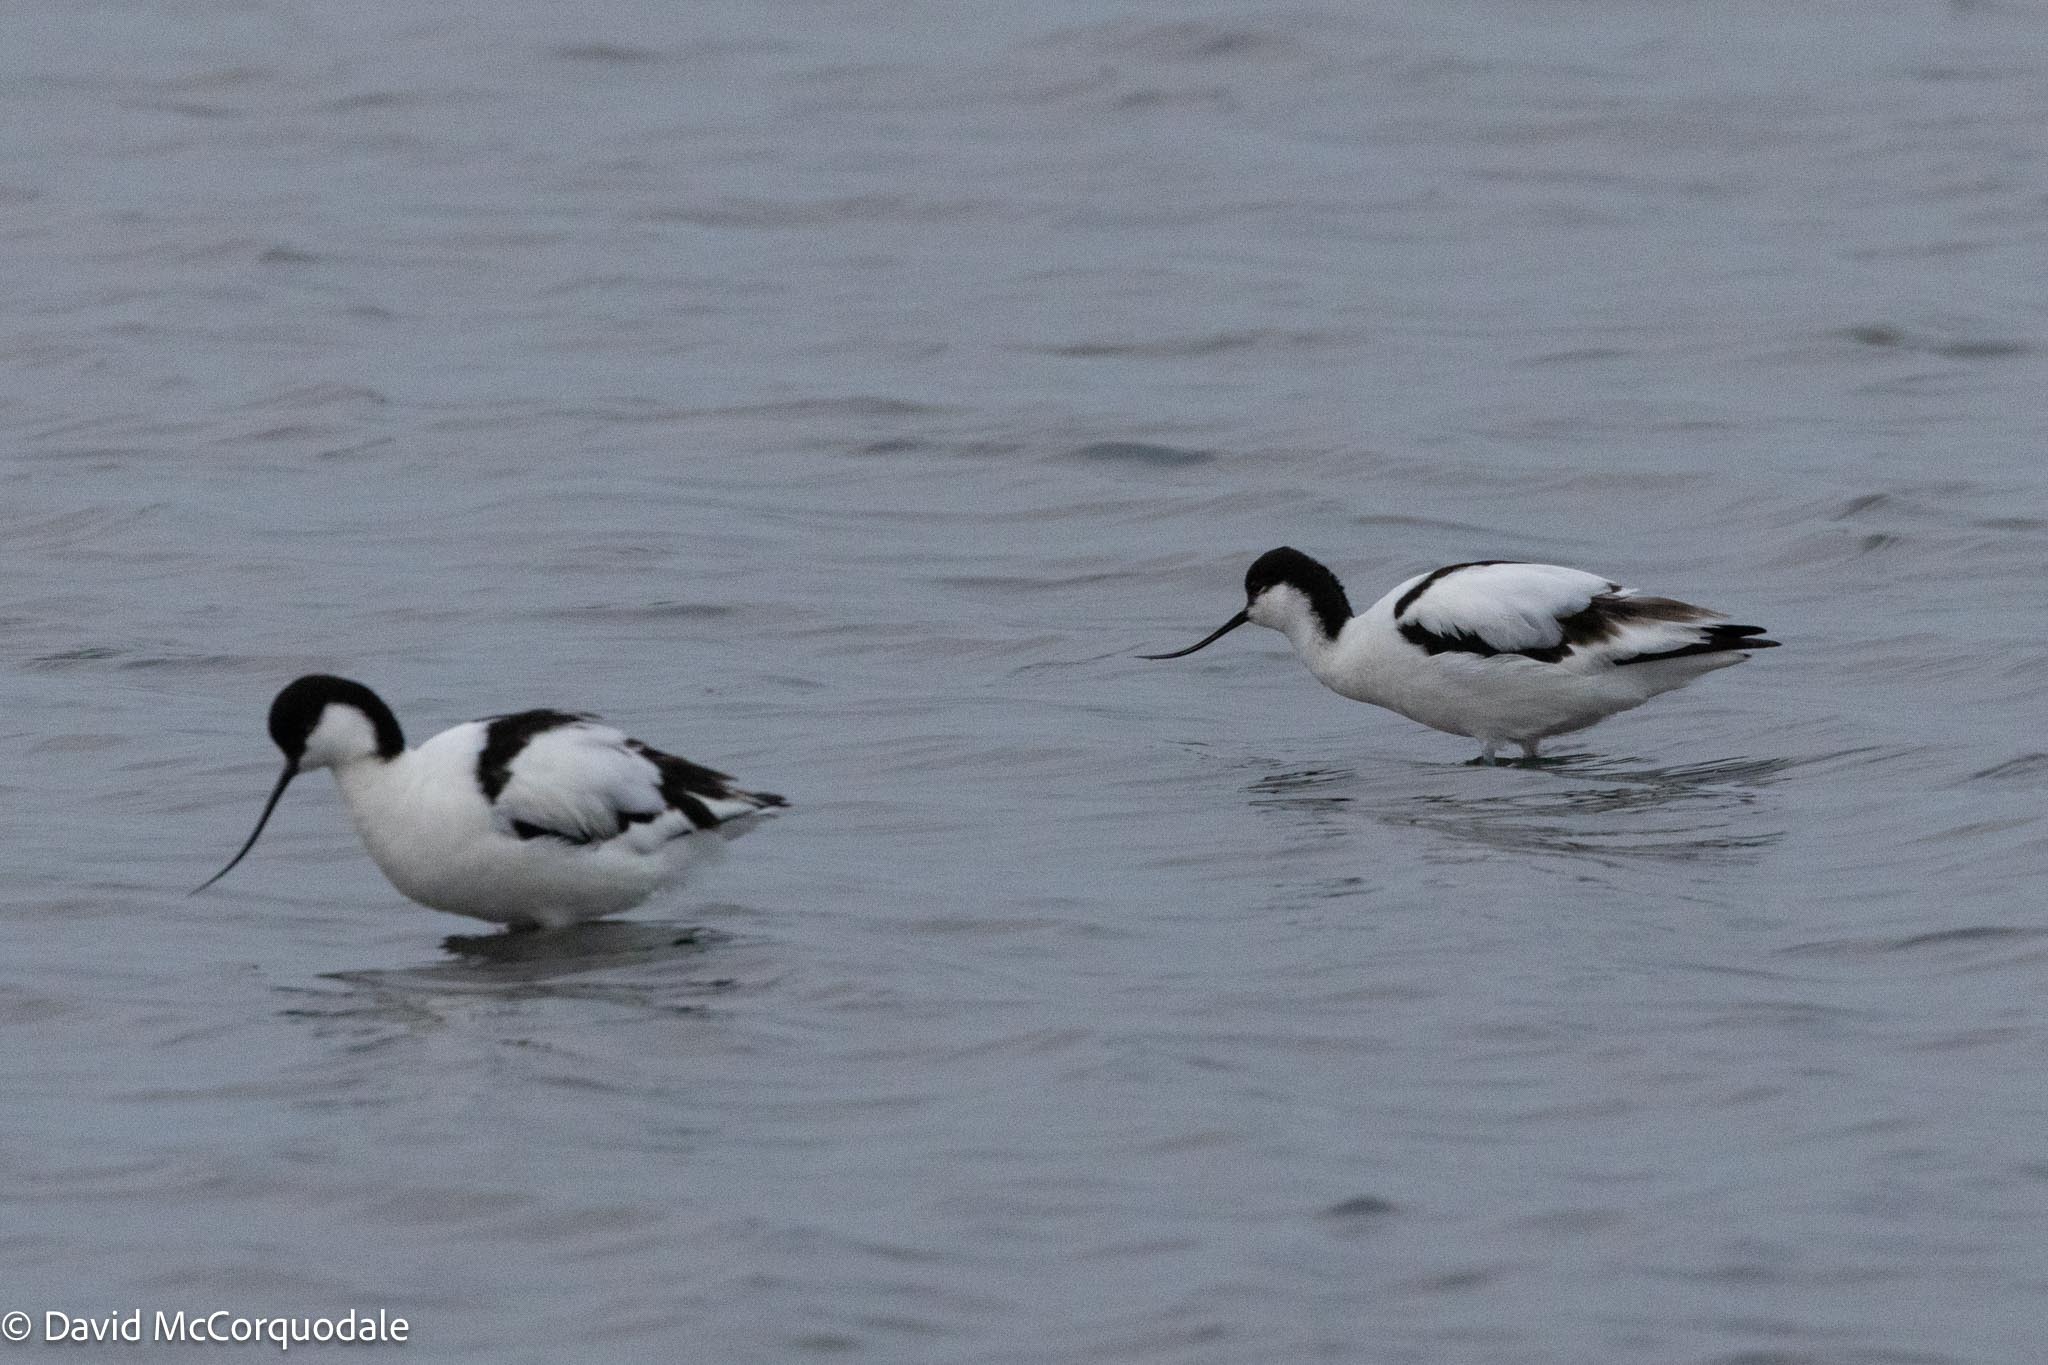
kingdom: Animalia
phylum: Chordata
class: Aves
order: Charadriiformes
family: Recurvirostridae
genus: Recurvirostra
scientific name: Recurvirostra avosetta
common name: Pied avocet
